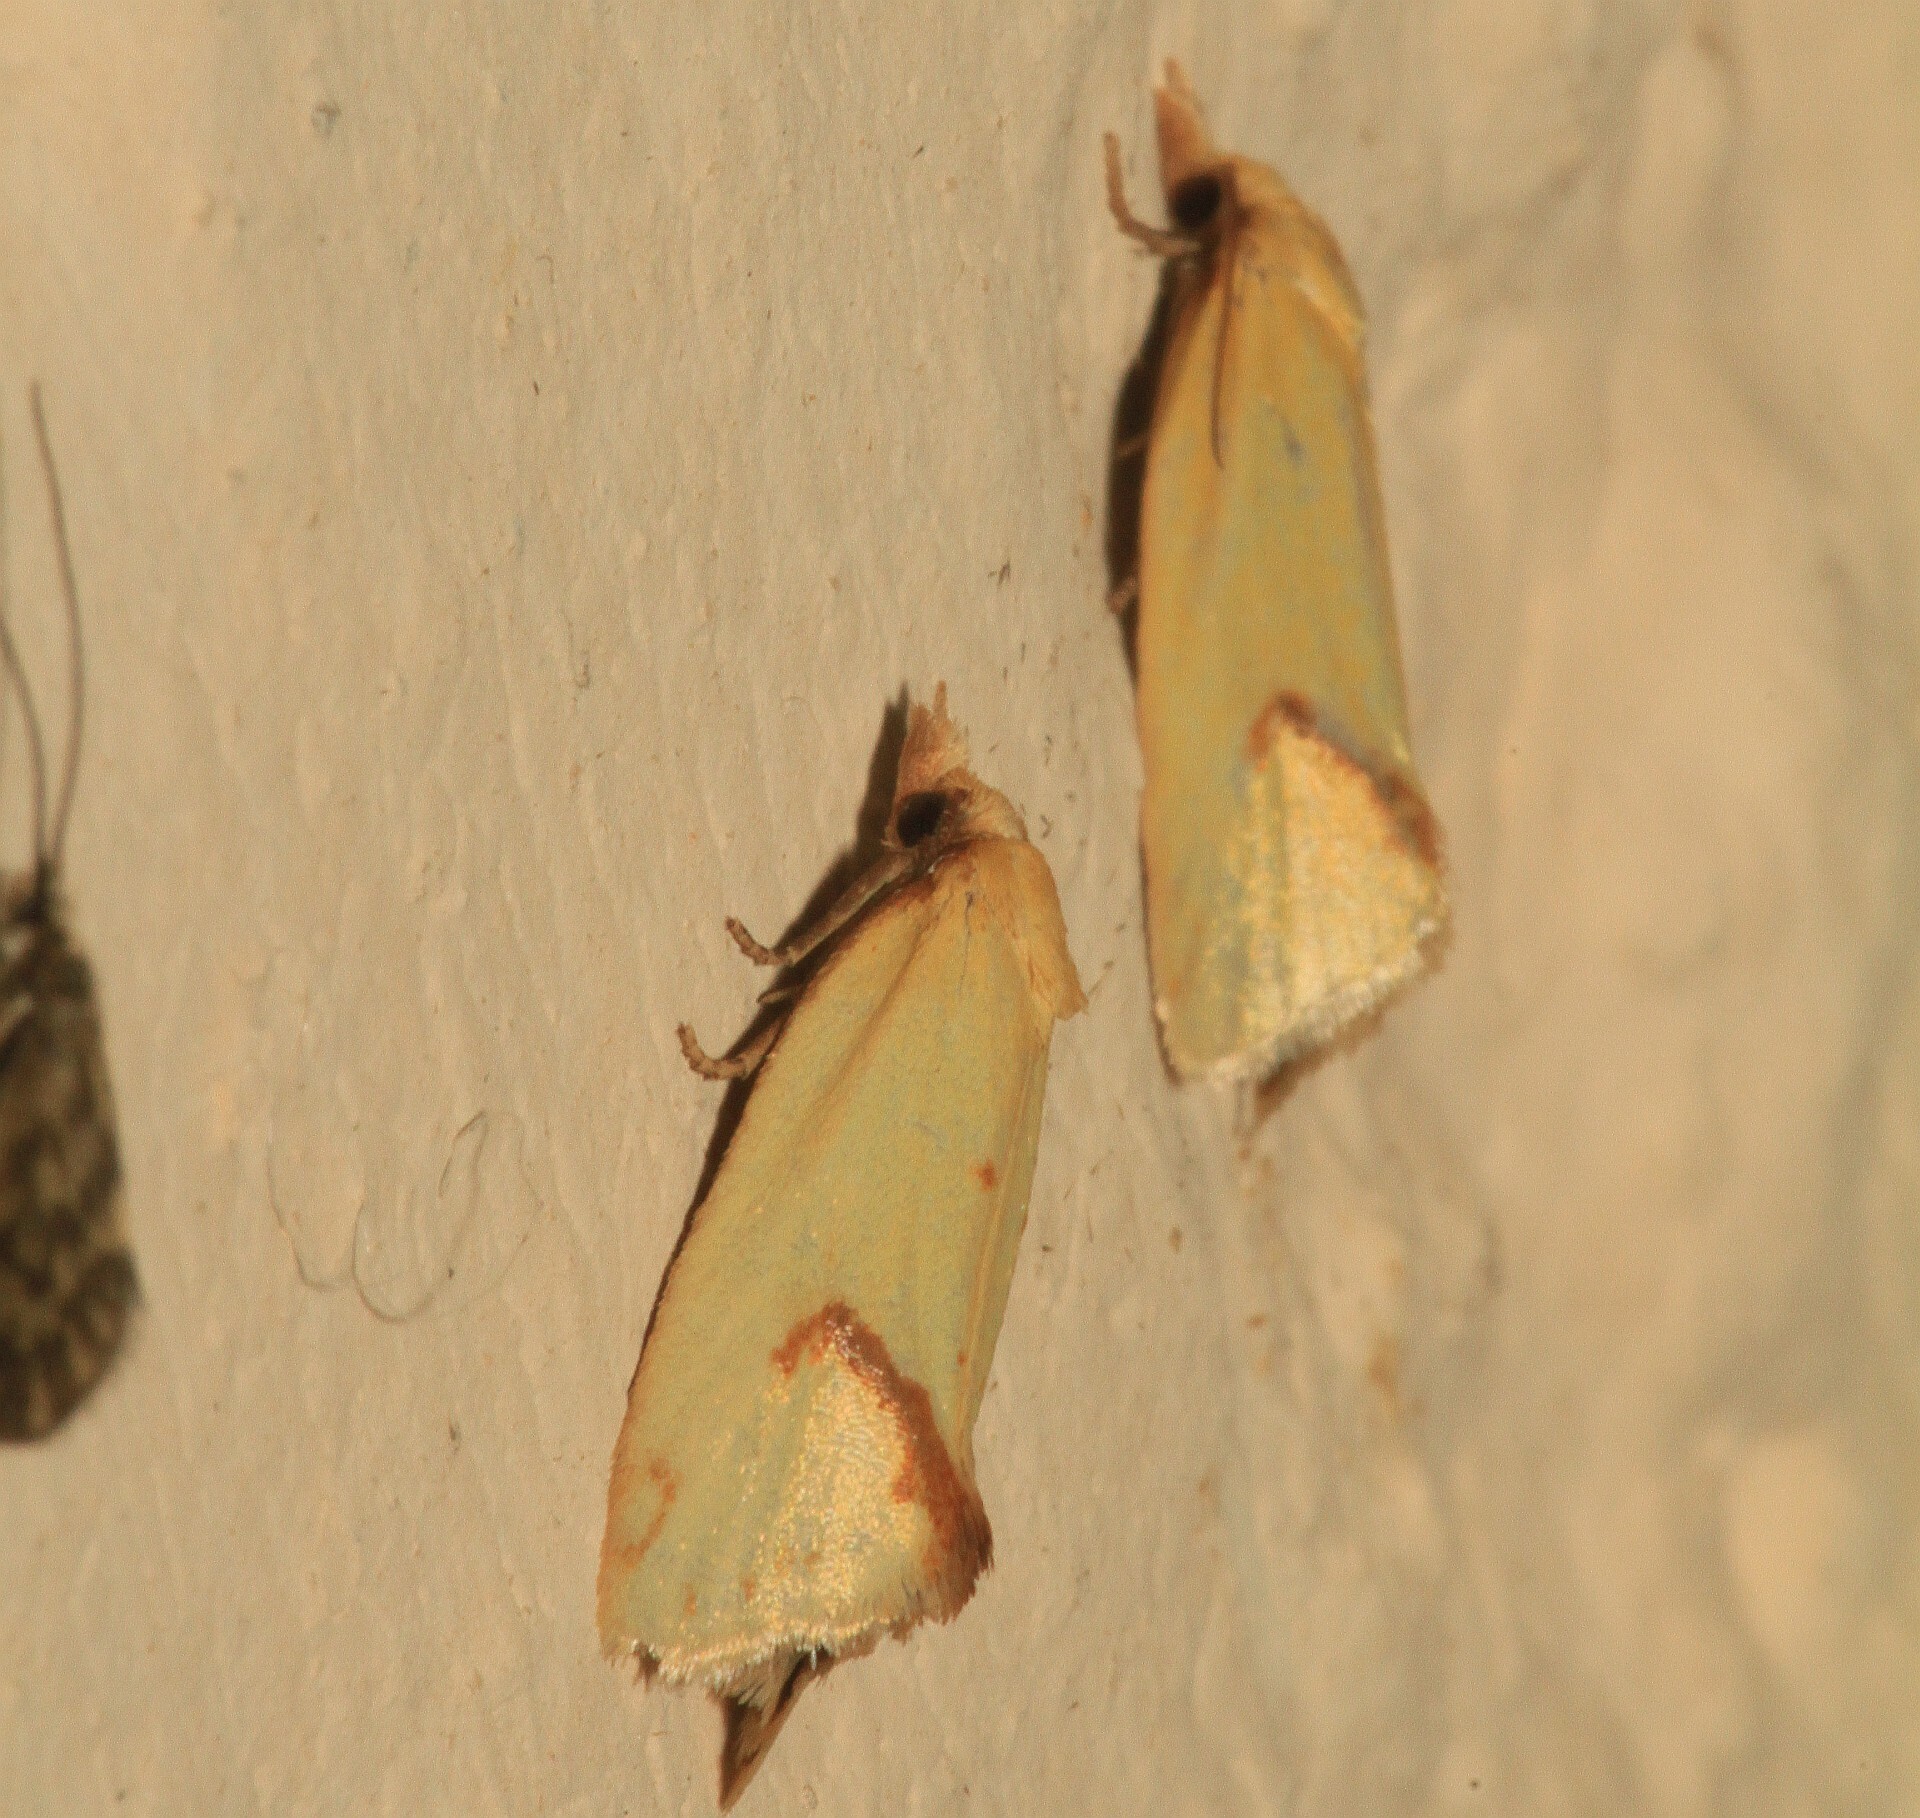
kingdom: Animalia
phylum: Arthropoda
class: Insecta
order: Lepidoptera
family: Tortricidae
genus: Agapeta
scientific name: Agapeta hamana
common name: Common yellow conch
